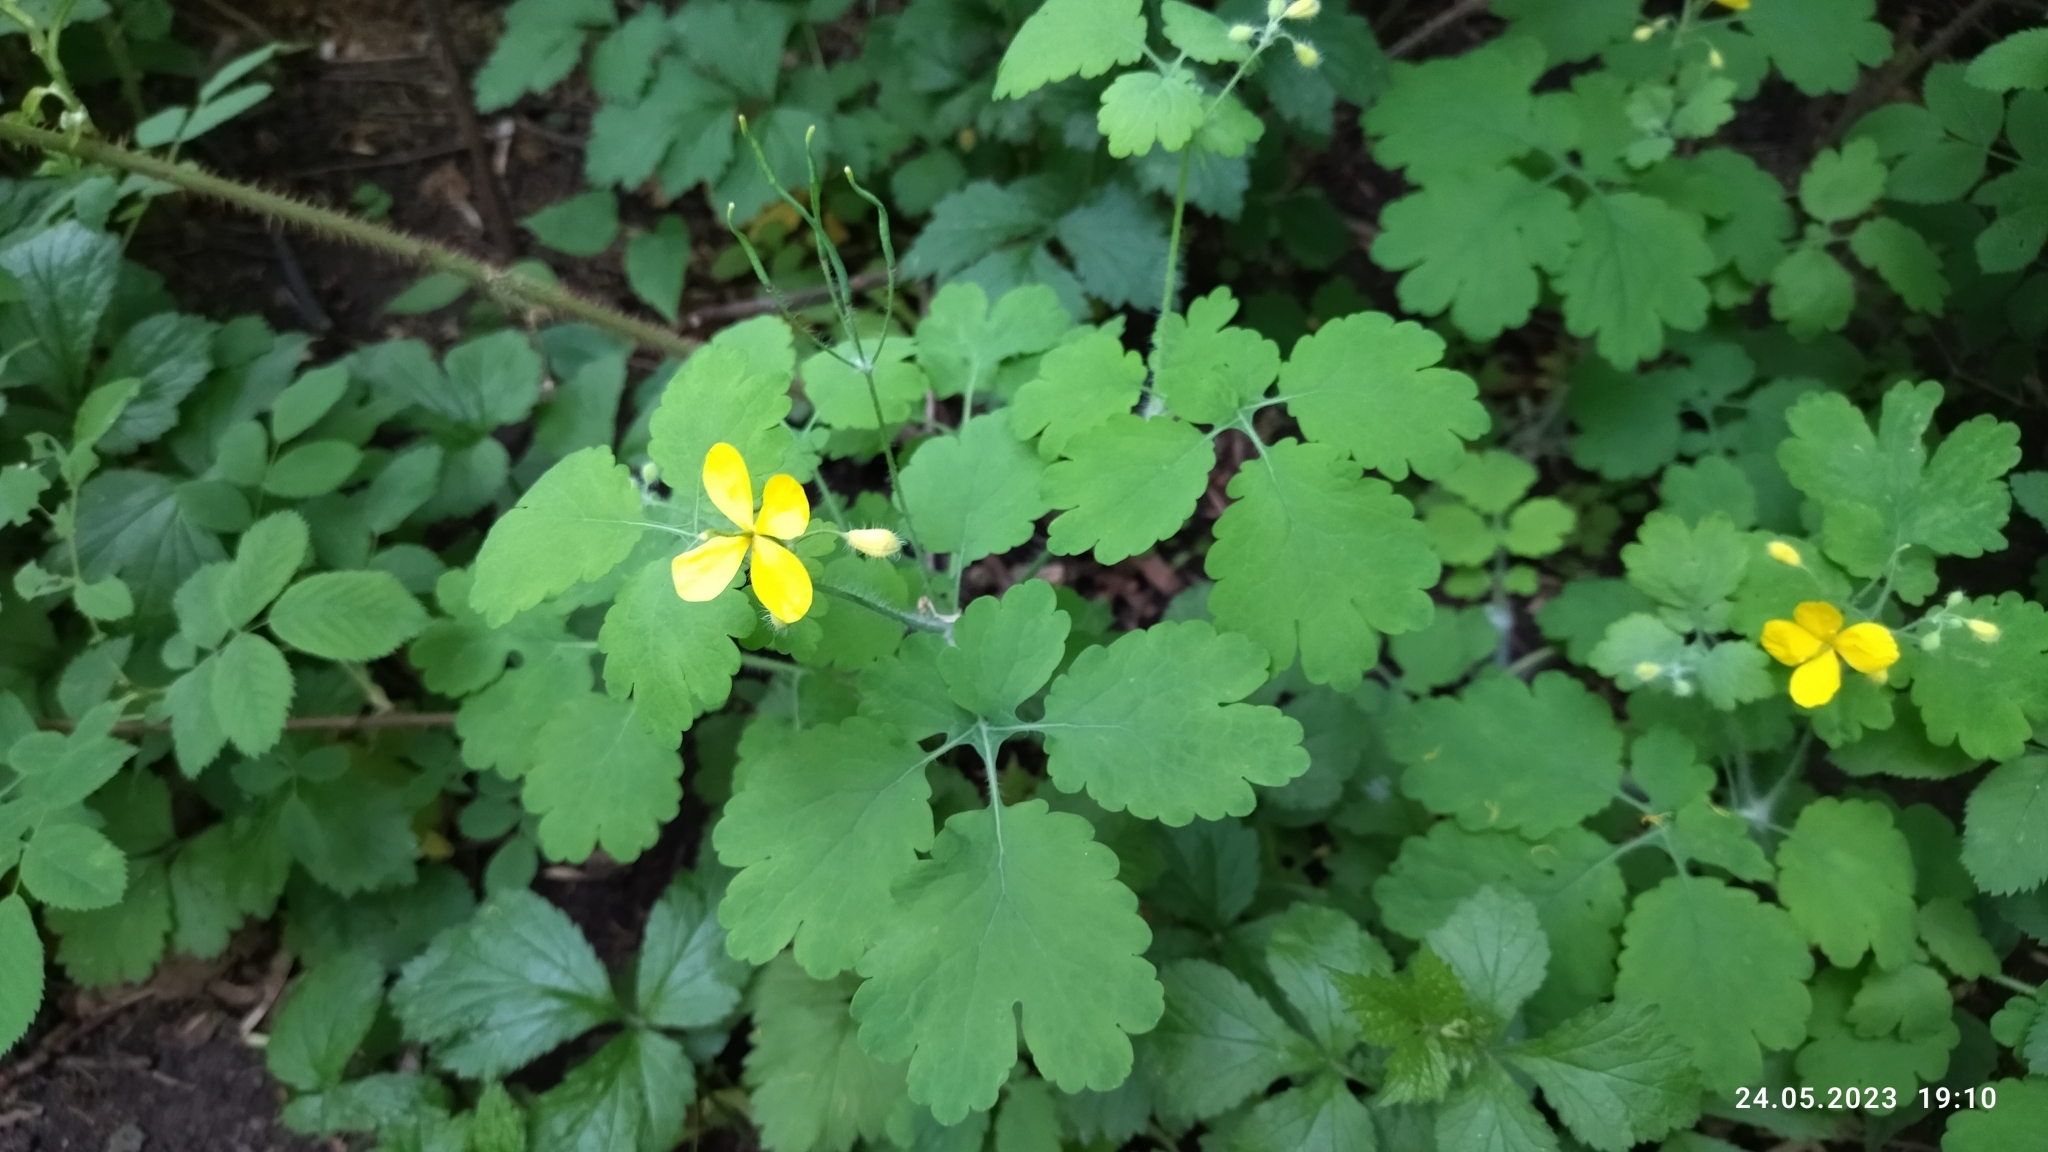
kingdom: Plantae
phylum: Tracheophyta
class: Magnoliopsida
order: Ranunculales
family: Papaveraceae
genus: Chelidonium
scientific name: Chelidonium majus
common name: Greater celandine
